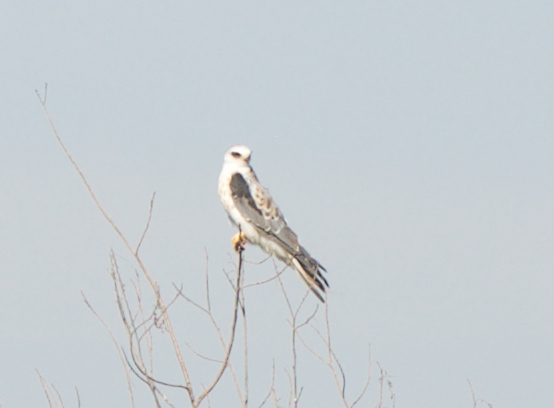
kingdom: Animalia
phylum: Chordata
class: Aves
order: Accipitriformes
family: Accipitridae
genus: Elanus
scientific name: Elanus leucurus
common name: White-tailed kite
